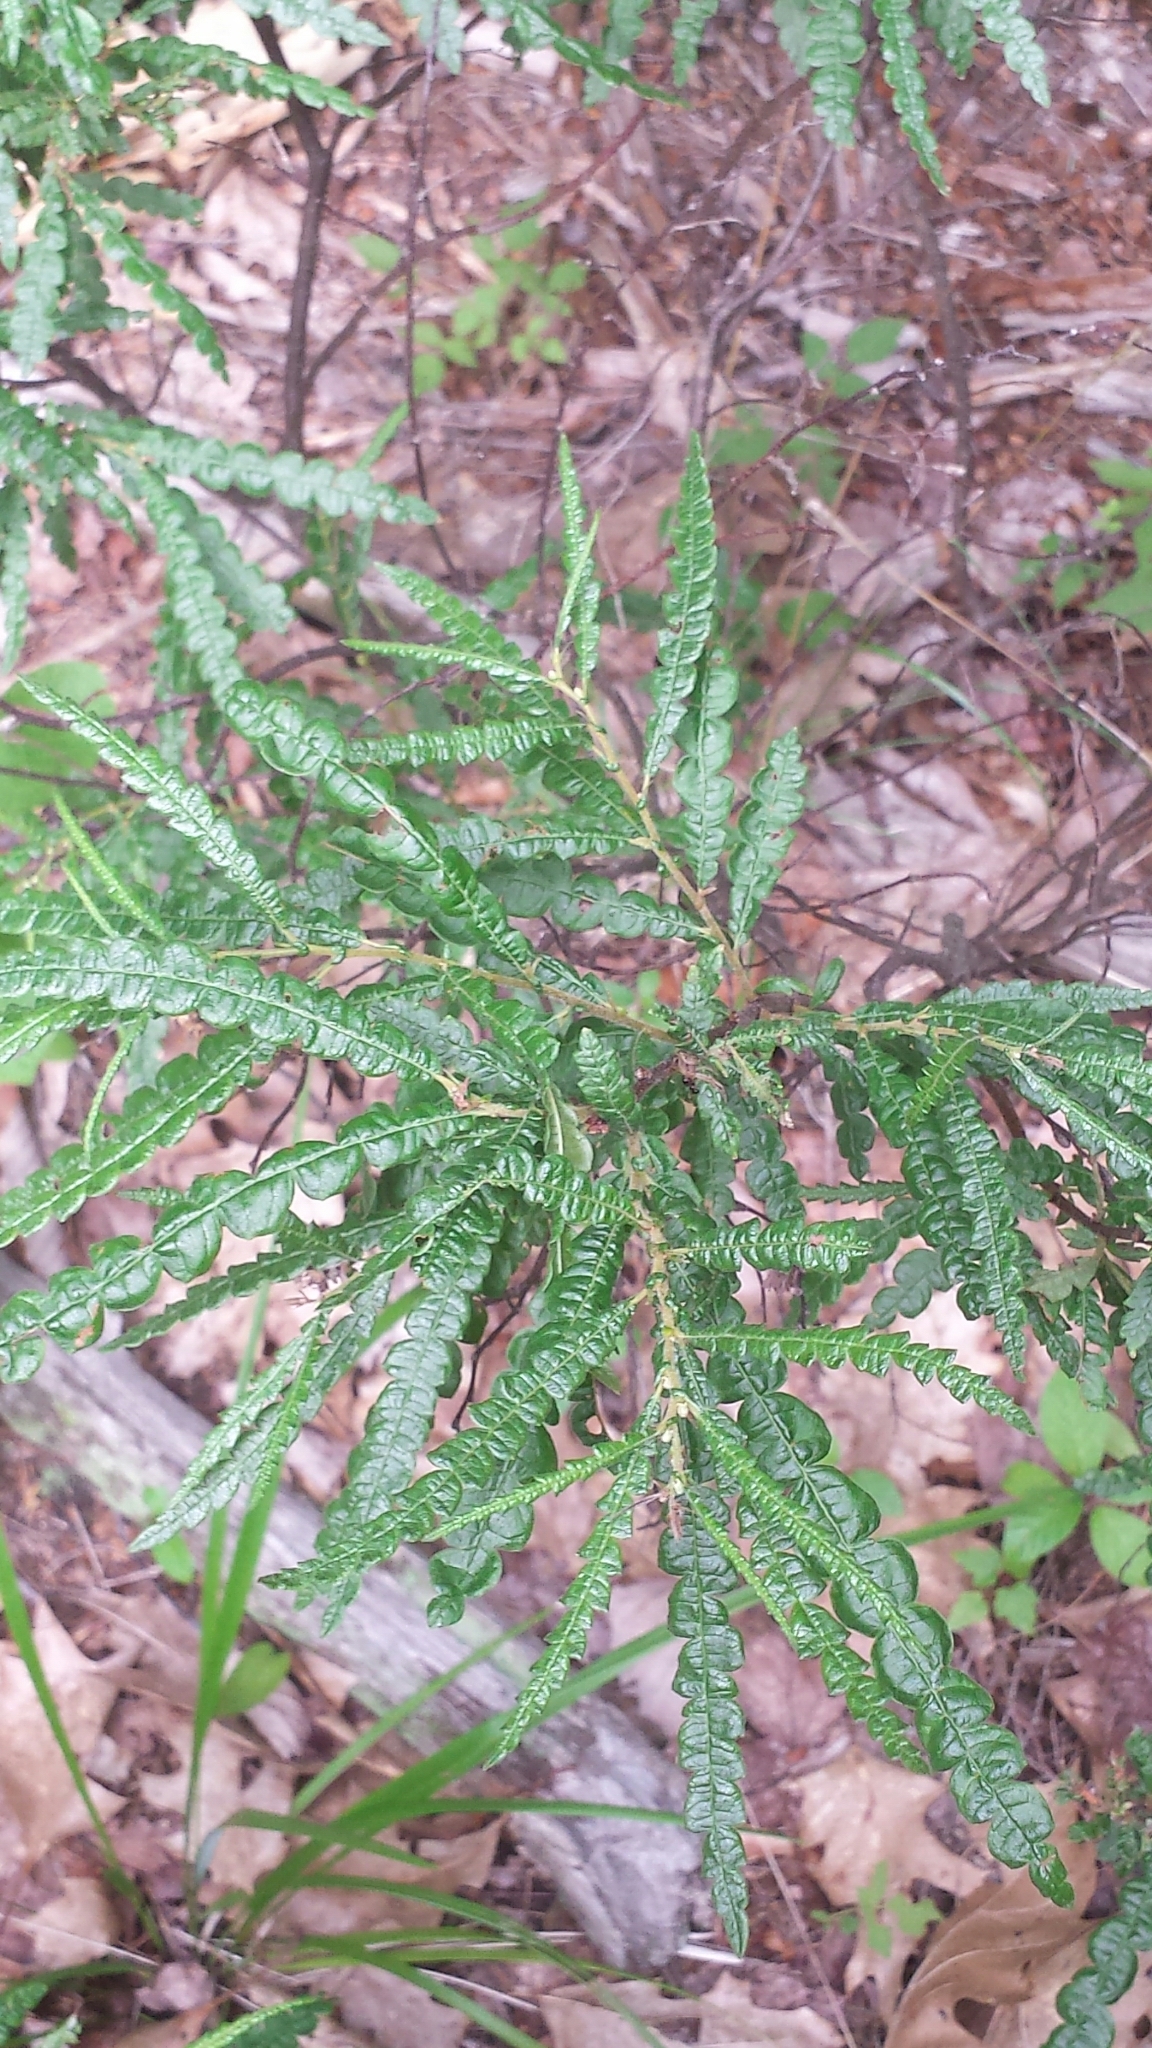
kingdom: Plantae
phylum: Tracheophyta
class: Magnoliopsida
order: Fagales
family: Myricaceae
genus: Comptonia
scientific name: Comptonia peregrina
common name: Sweet-fern
